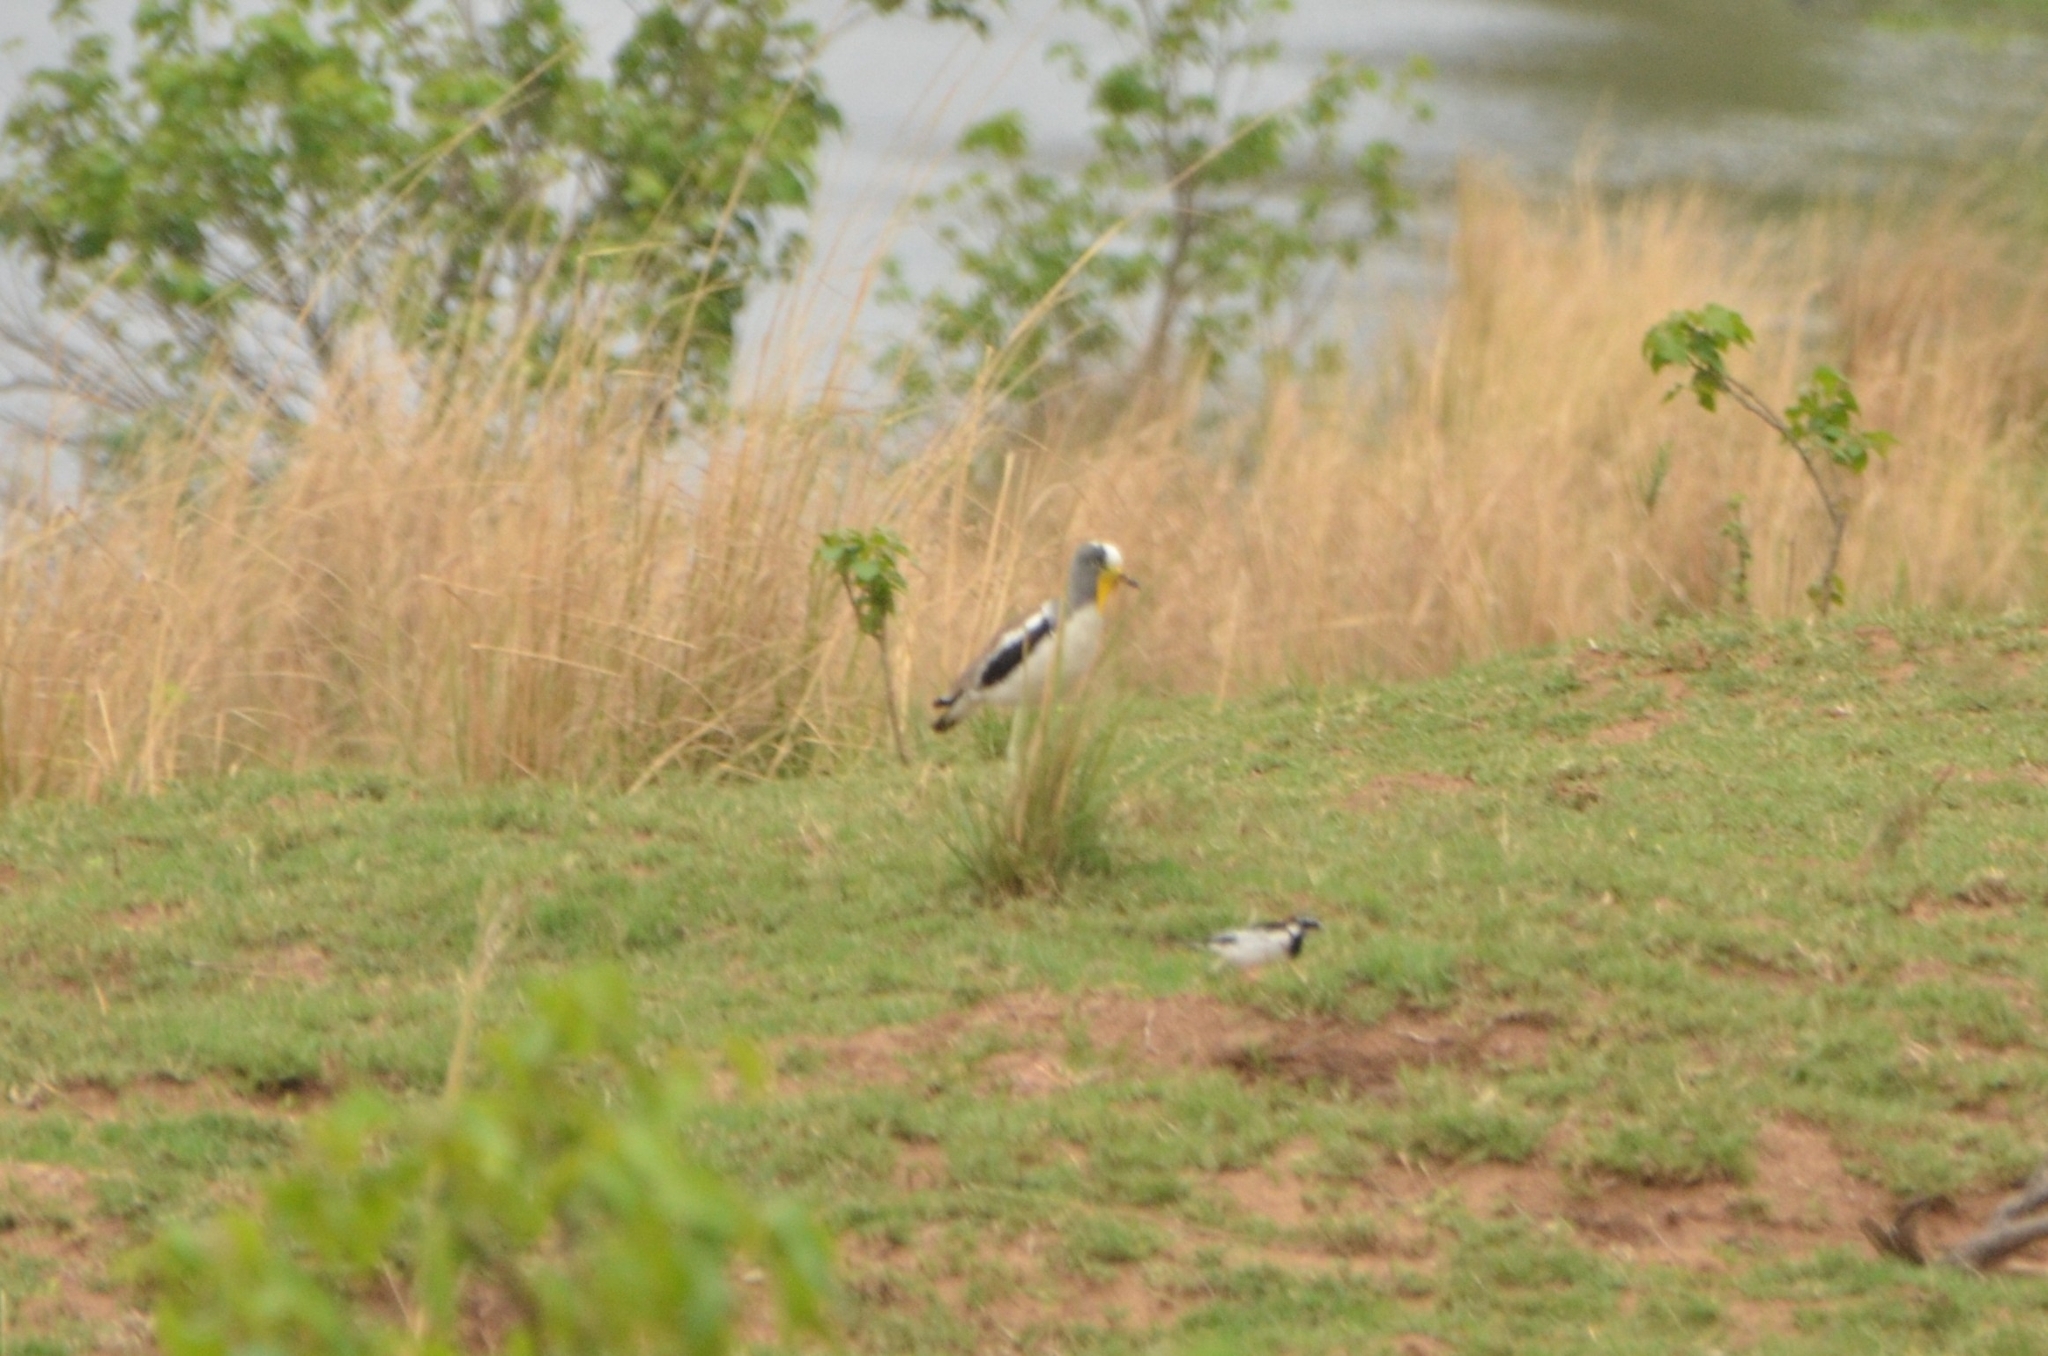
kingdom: Animalia
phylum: Chordata
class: Aves
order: Charadriiformes
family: Charadriidae
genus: Vanellus
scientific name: Vanellus albiceps
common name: White-crowned lapwing
